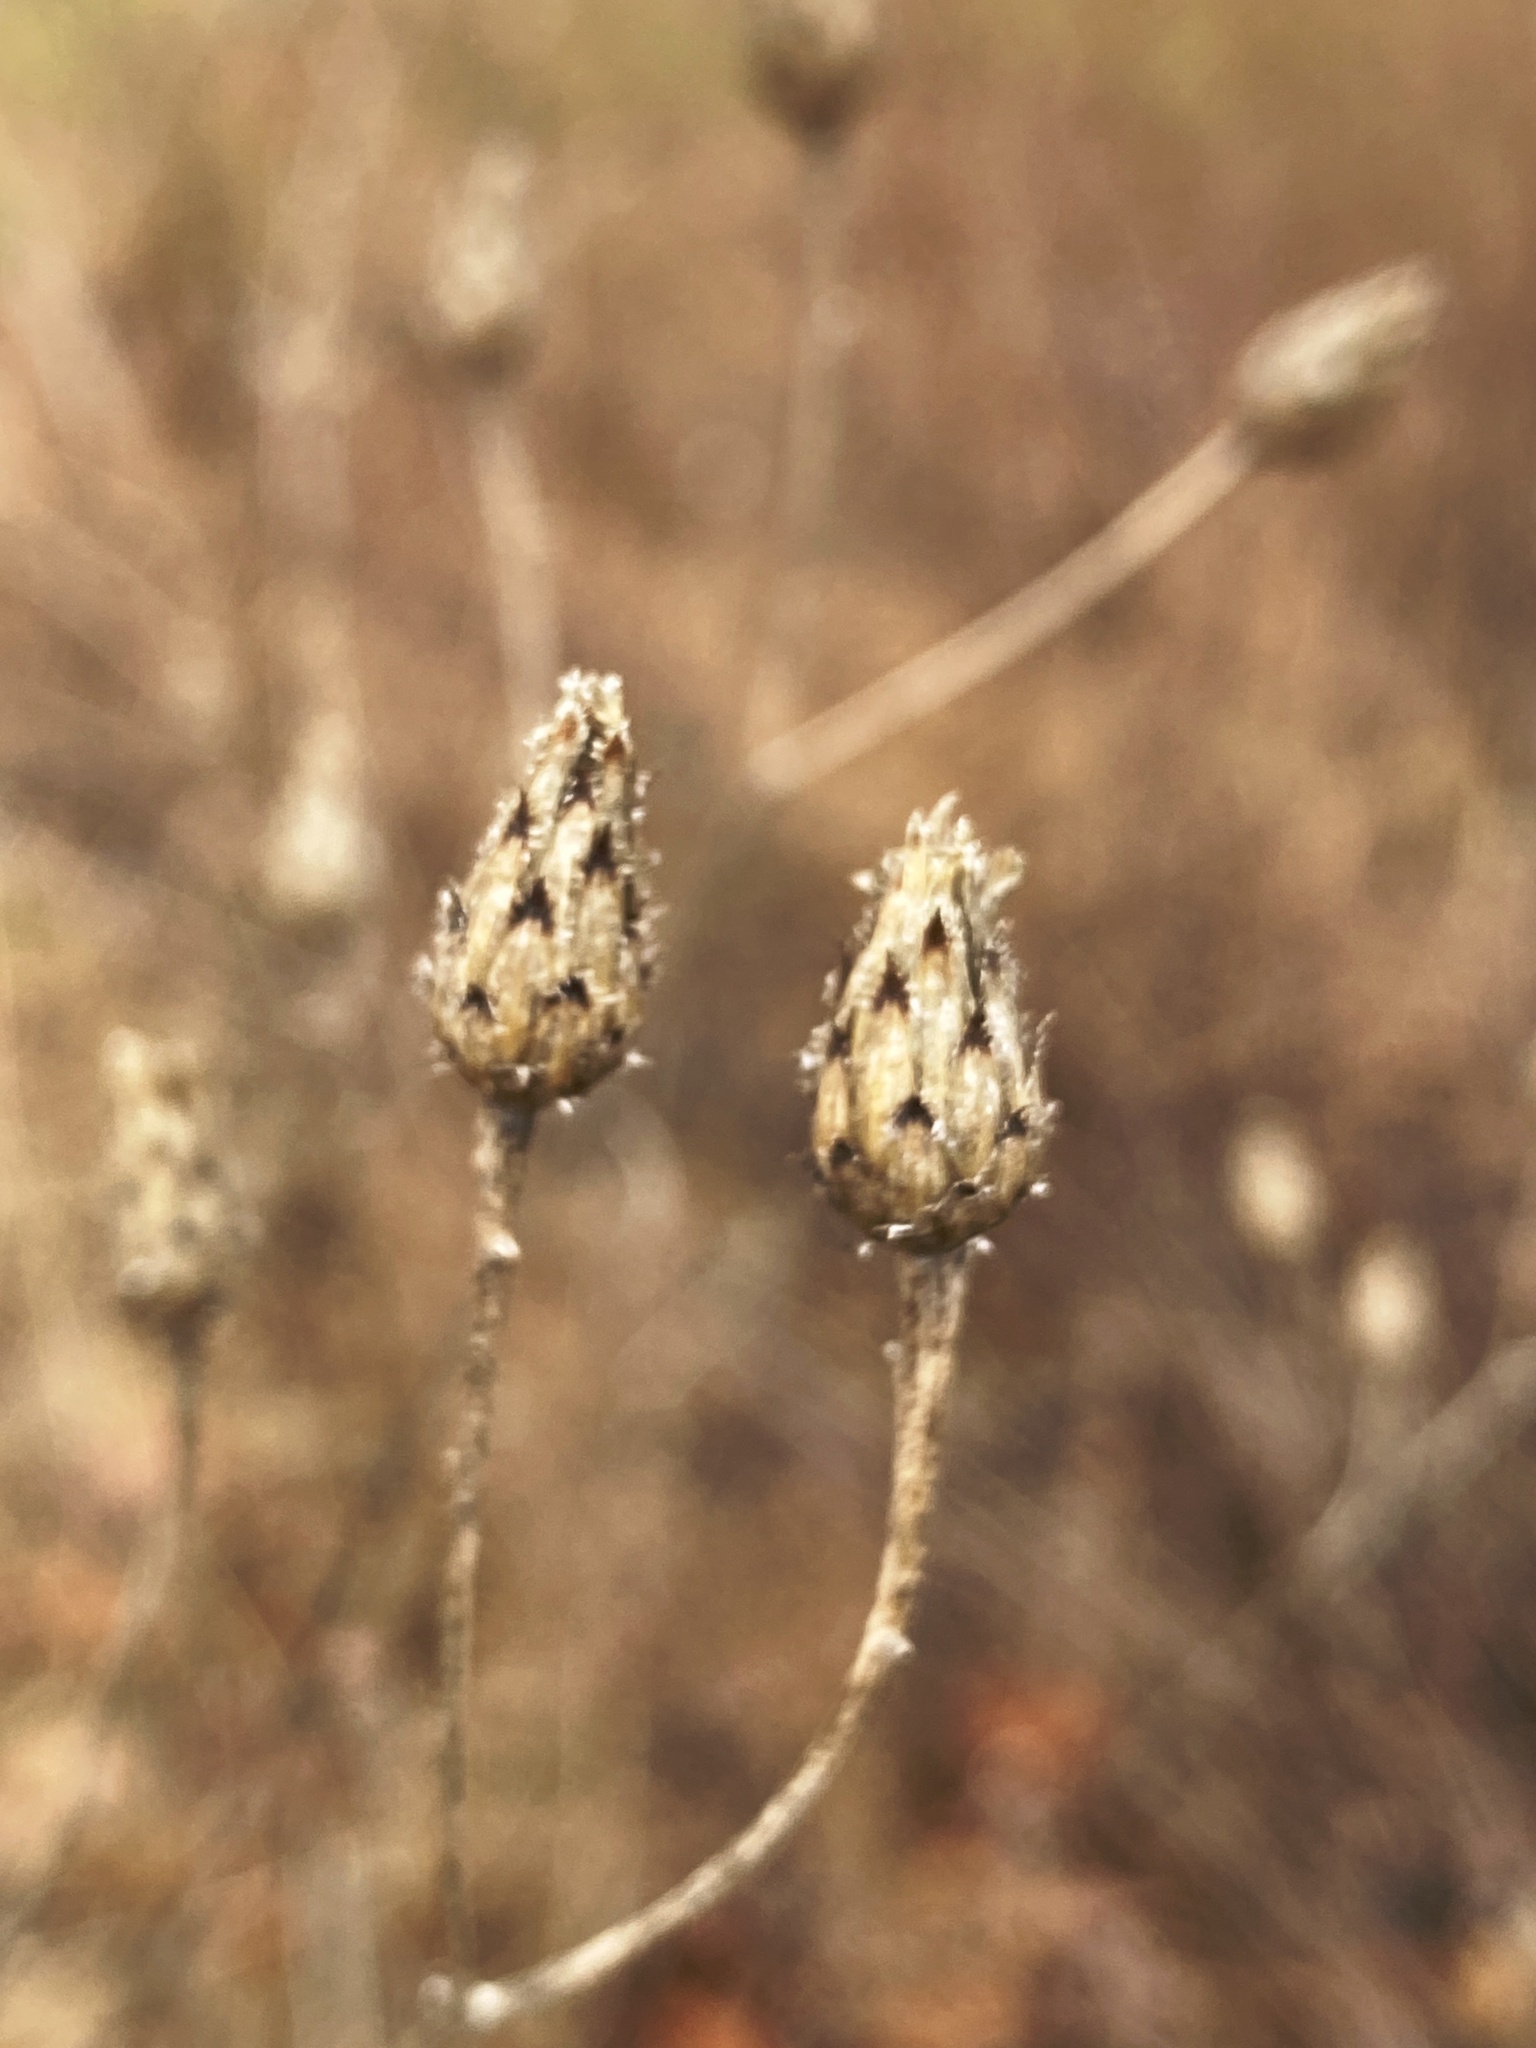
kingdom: Plantae
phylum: Tracheophyta
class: Magnoliopsida
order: Asterales
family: Asteraceae
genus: Centaurea
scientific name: Centaurea stoebe
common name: Spotted knapweed
